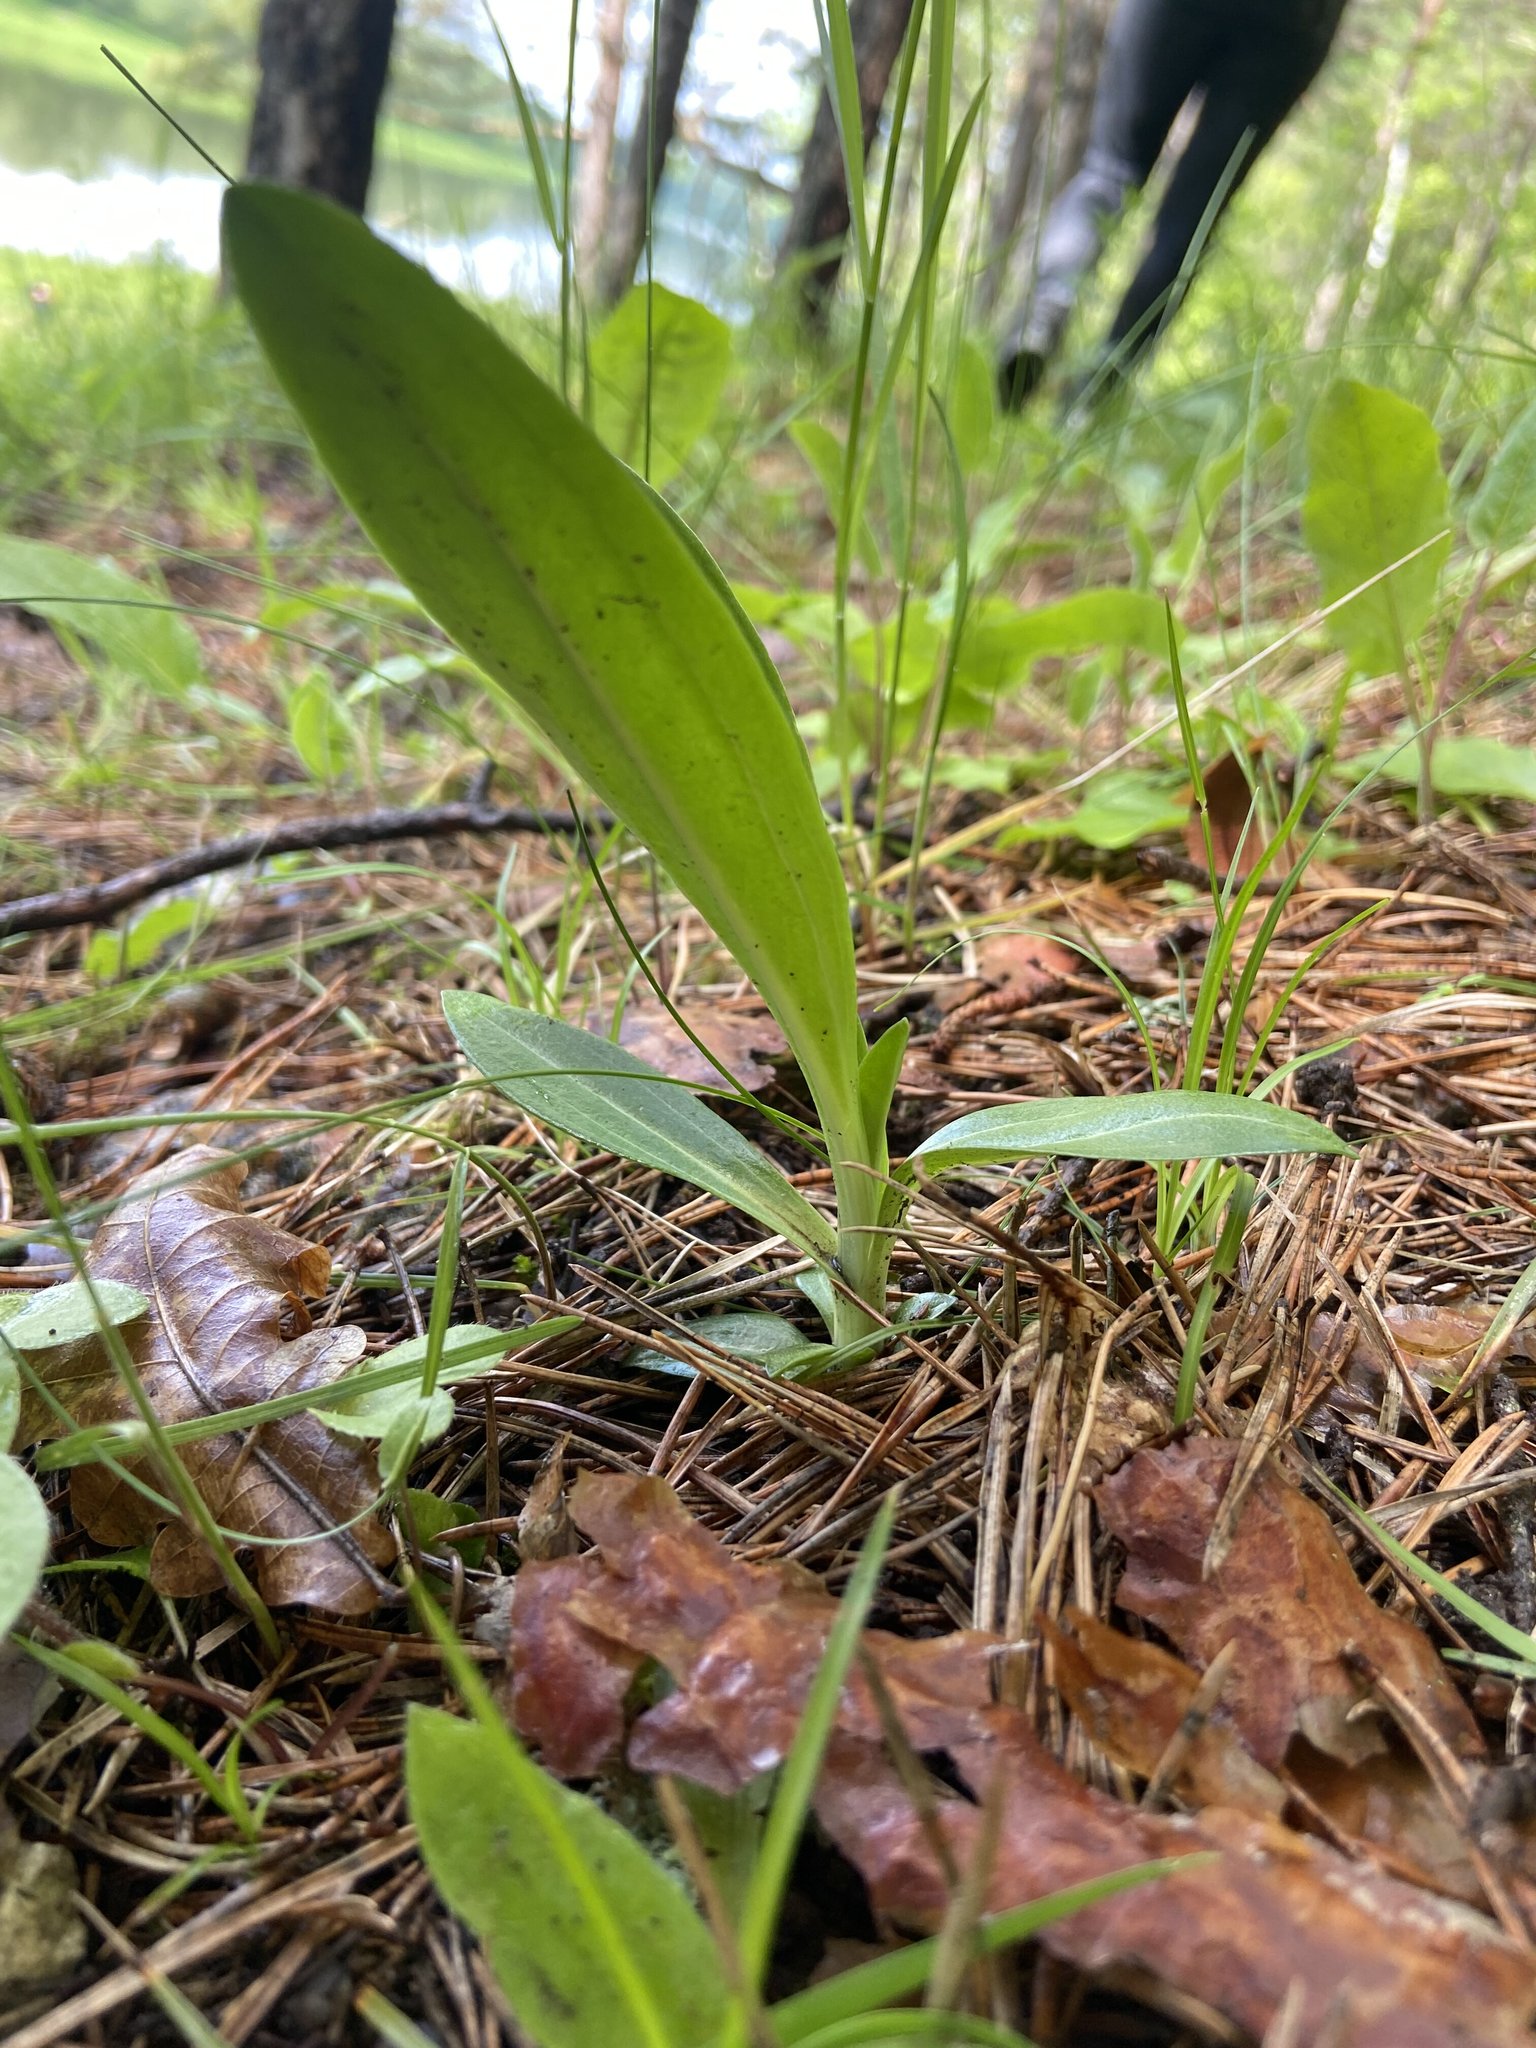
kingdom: Plantae
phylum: Tracheophyta
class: Magnoliopsida
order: Gentianales
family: Gentianaceae
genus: Gentiana
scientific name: Gentiana cruciata
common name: Cross gentian
